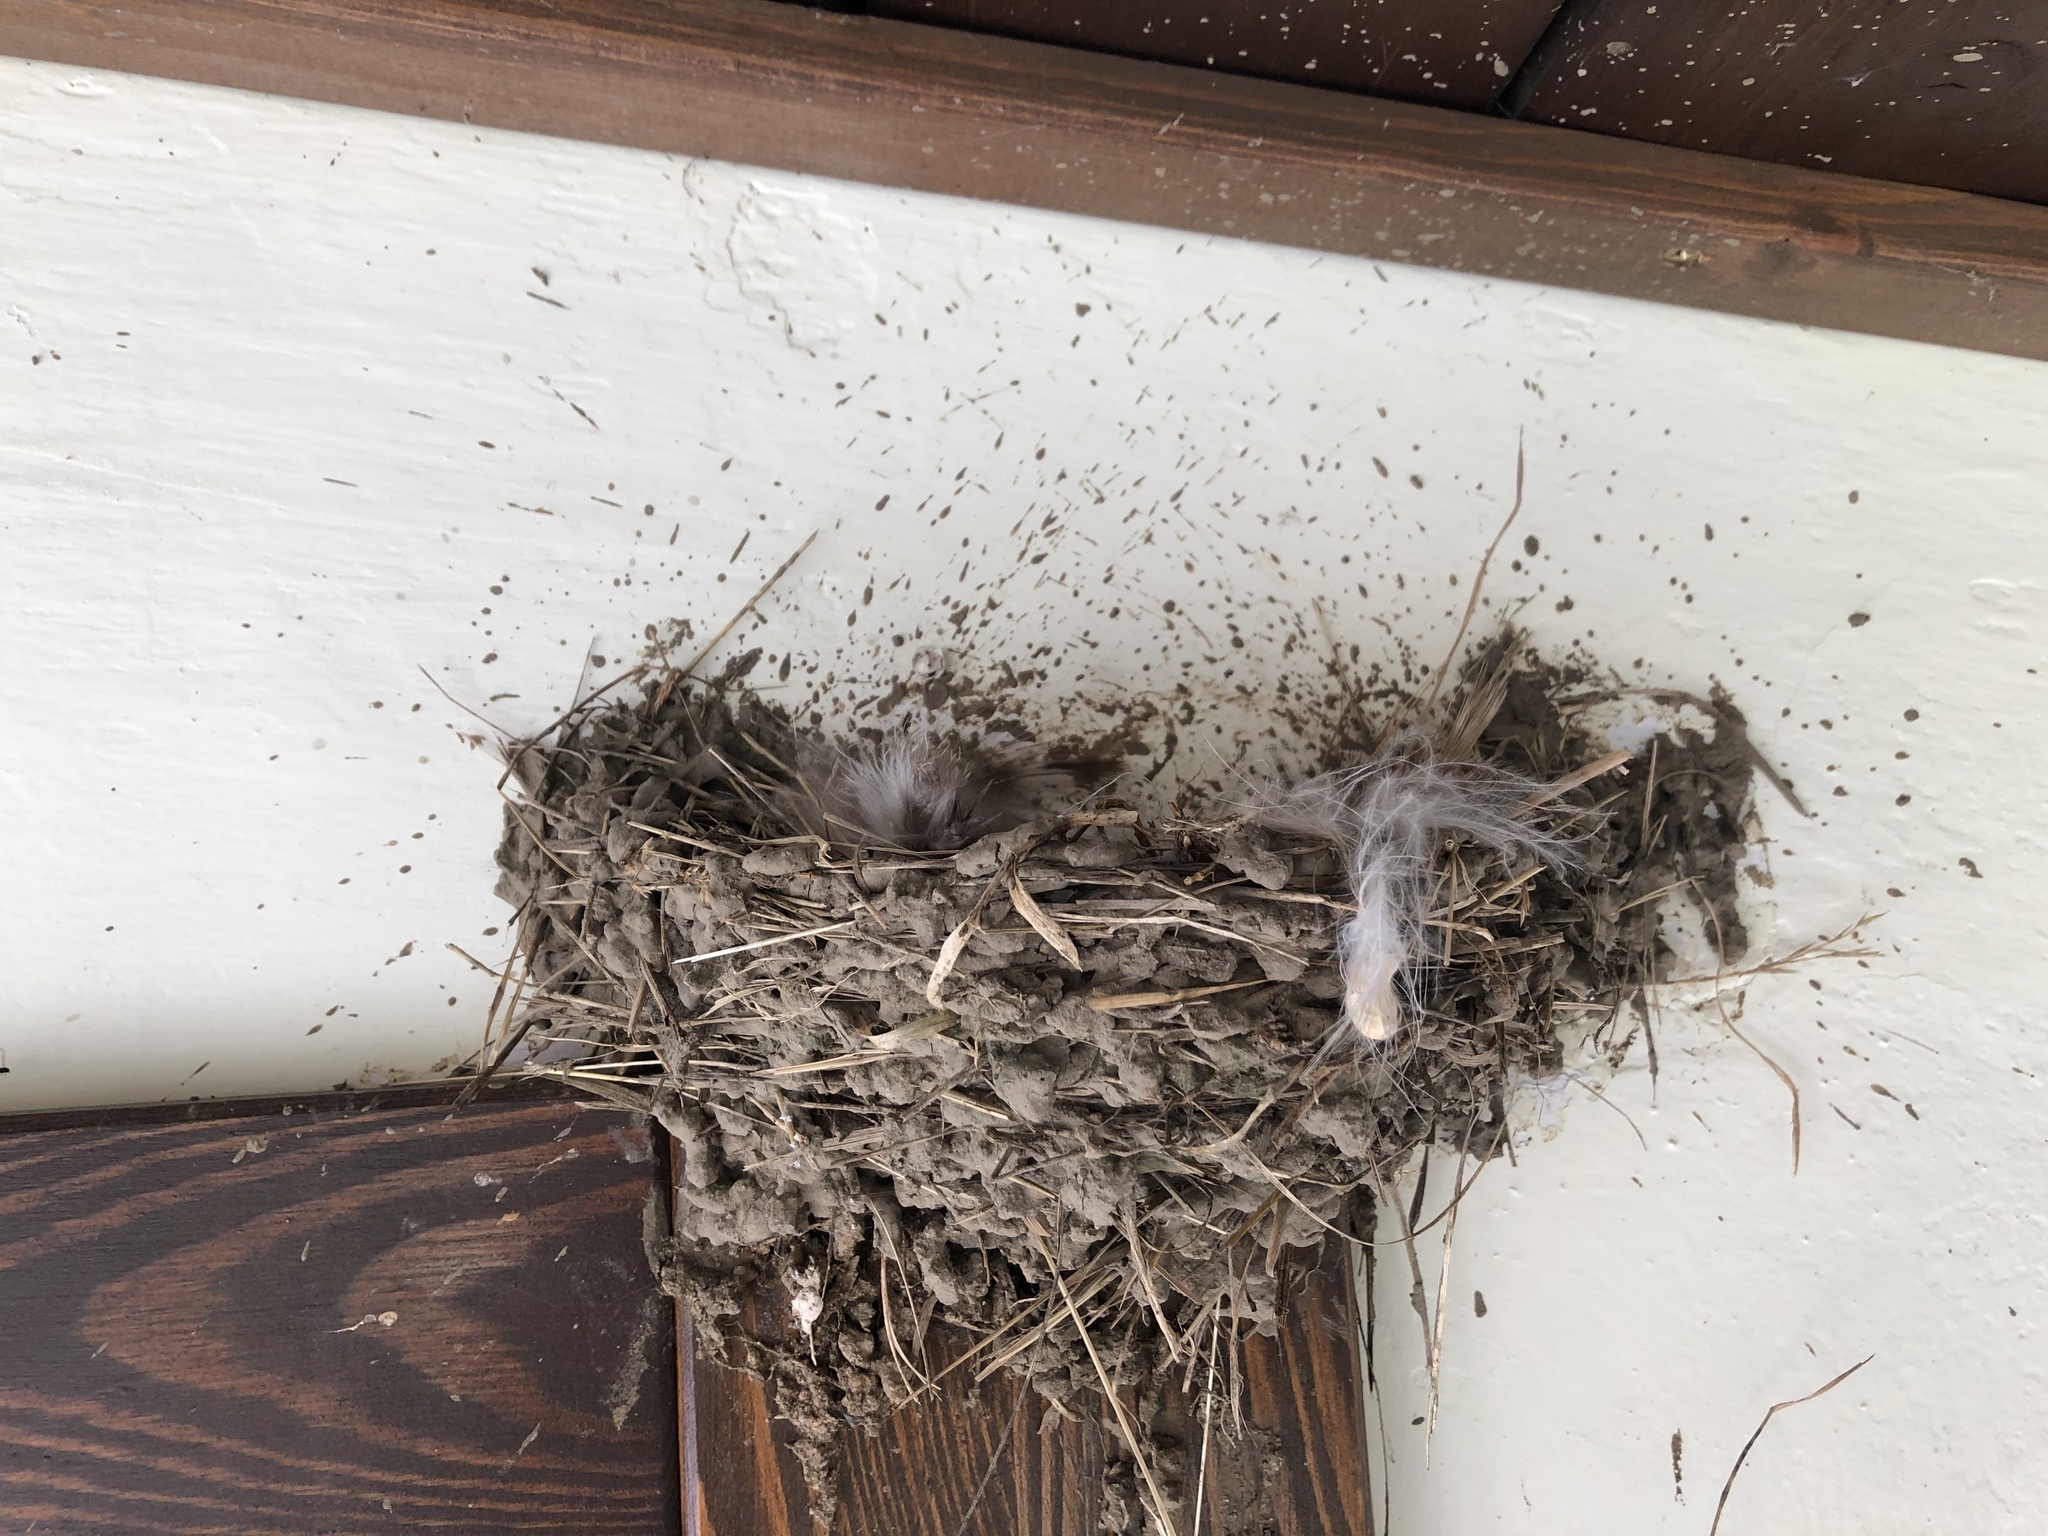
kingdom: Animalia
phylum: Chordata
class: Aves
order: Passeriformes
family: Hirundinidae
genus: Hirundo
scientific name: Hirundo rustica
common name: Barn swallow
